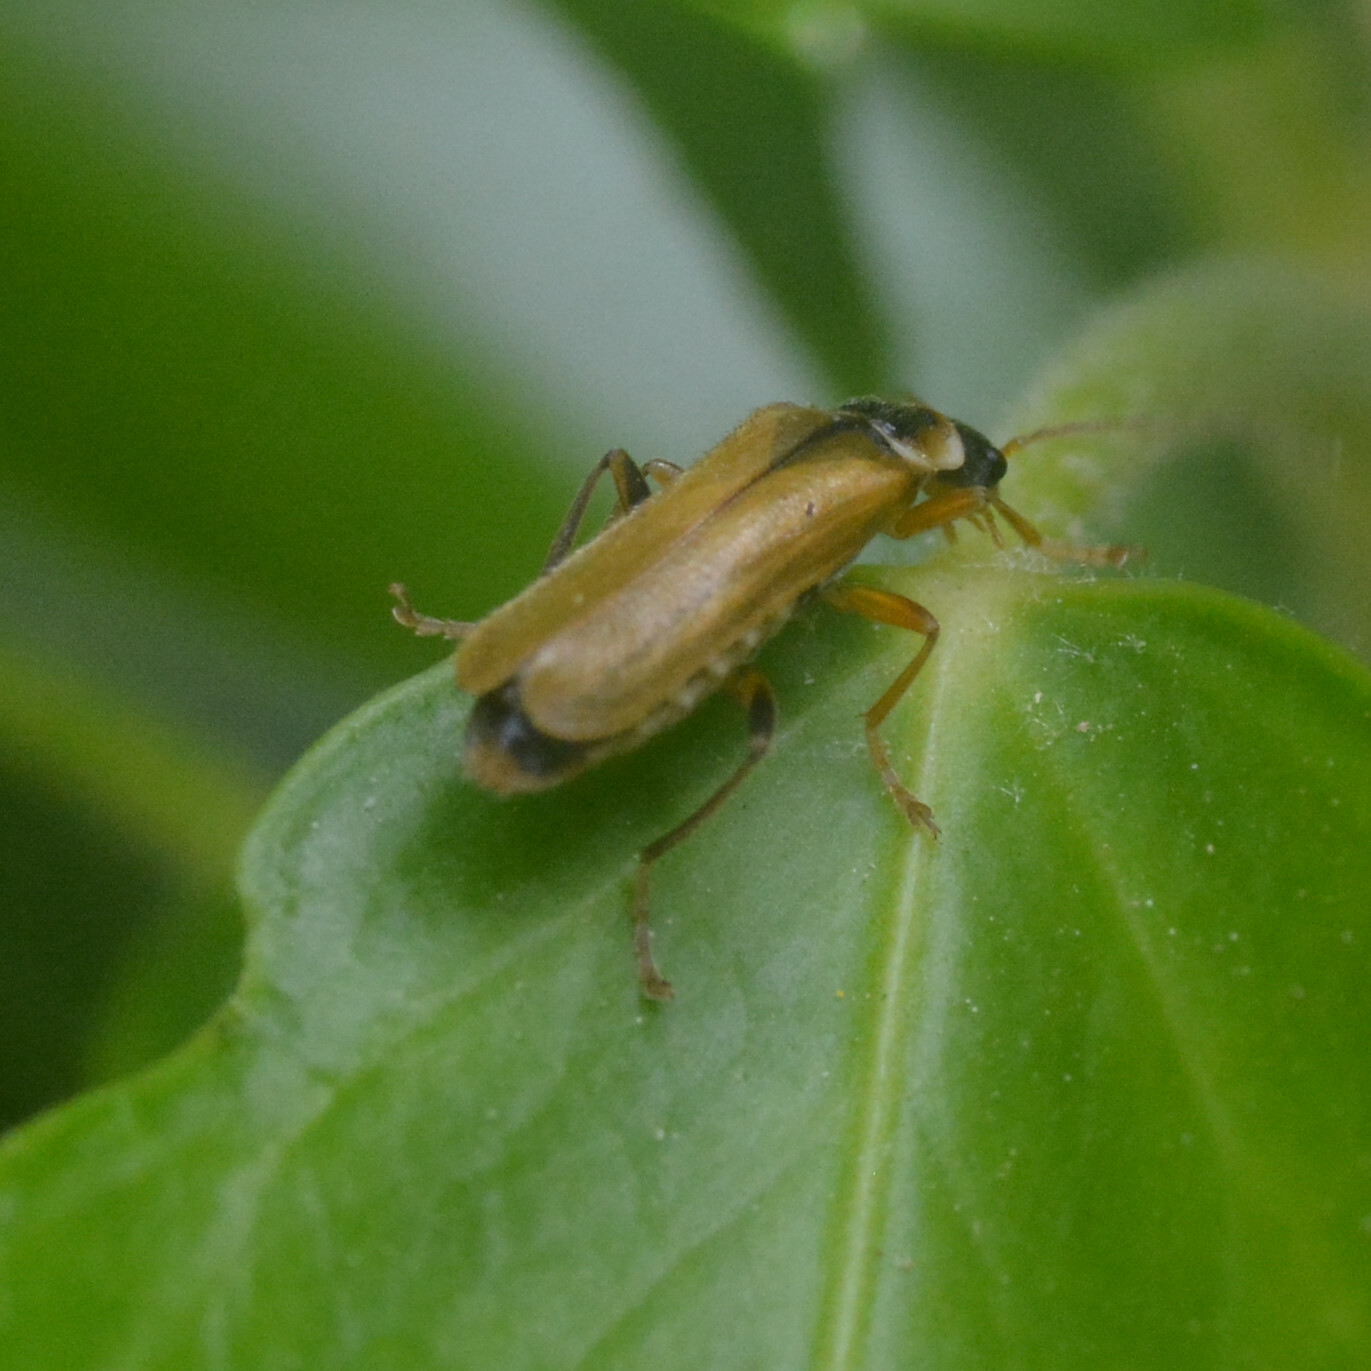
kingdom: Animalia
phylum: Arthropoda
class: Insecta
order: Coleoptera
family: Cantharidae
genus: Cantharis
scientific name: Cantharis decipiens
